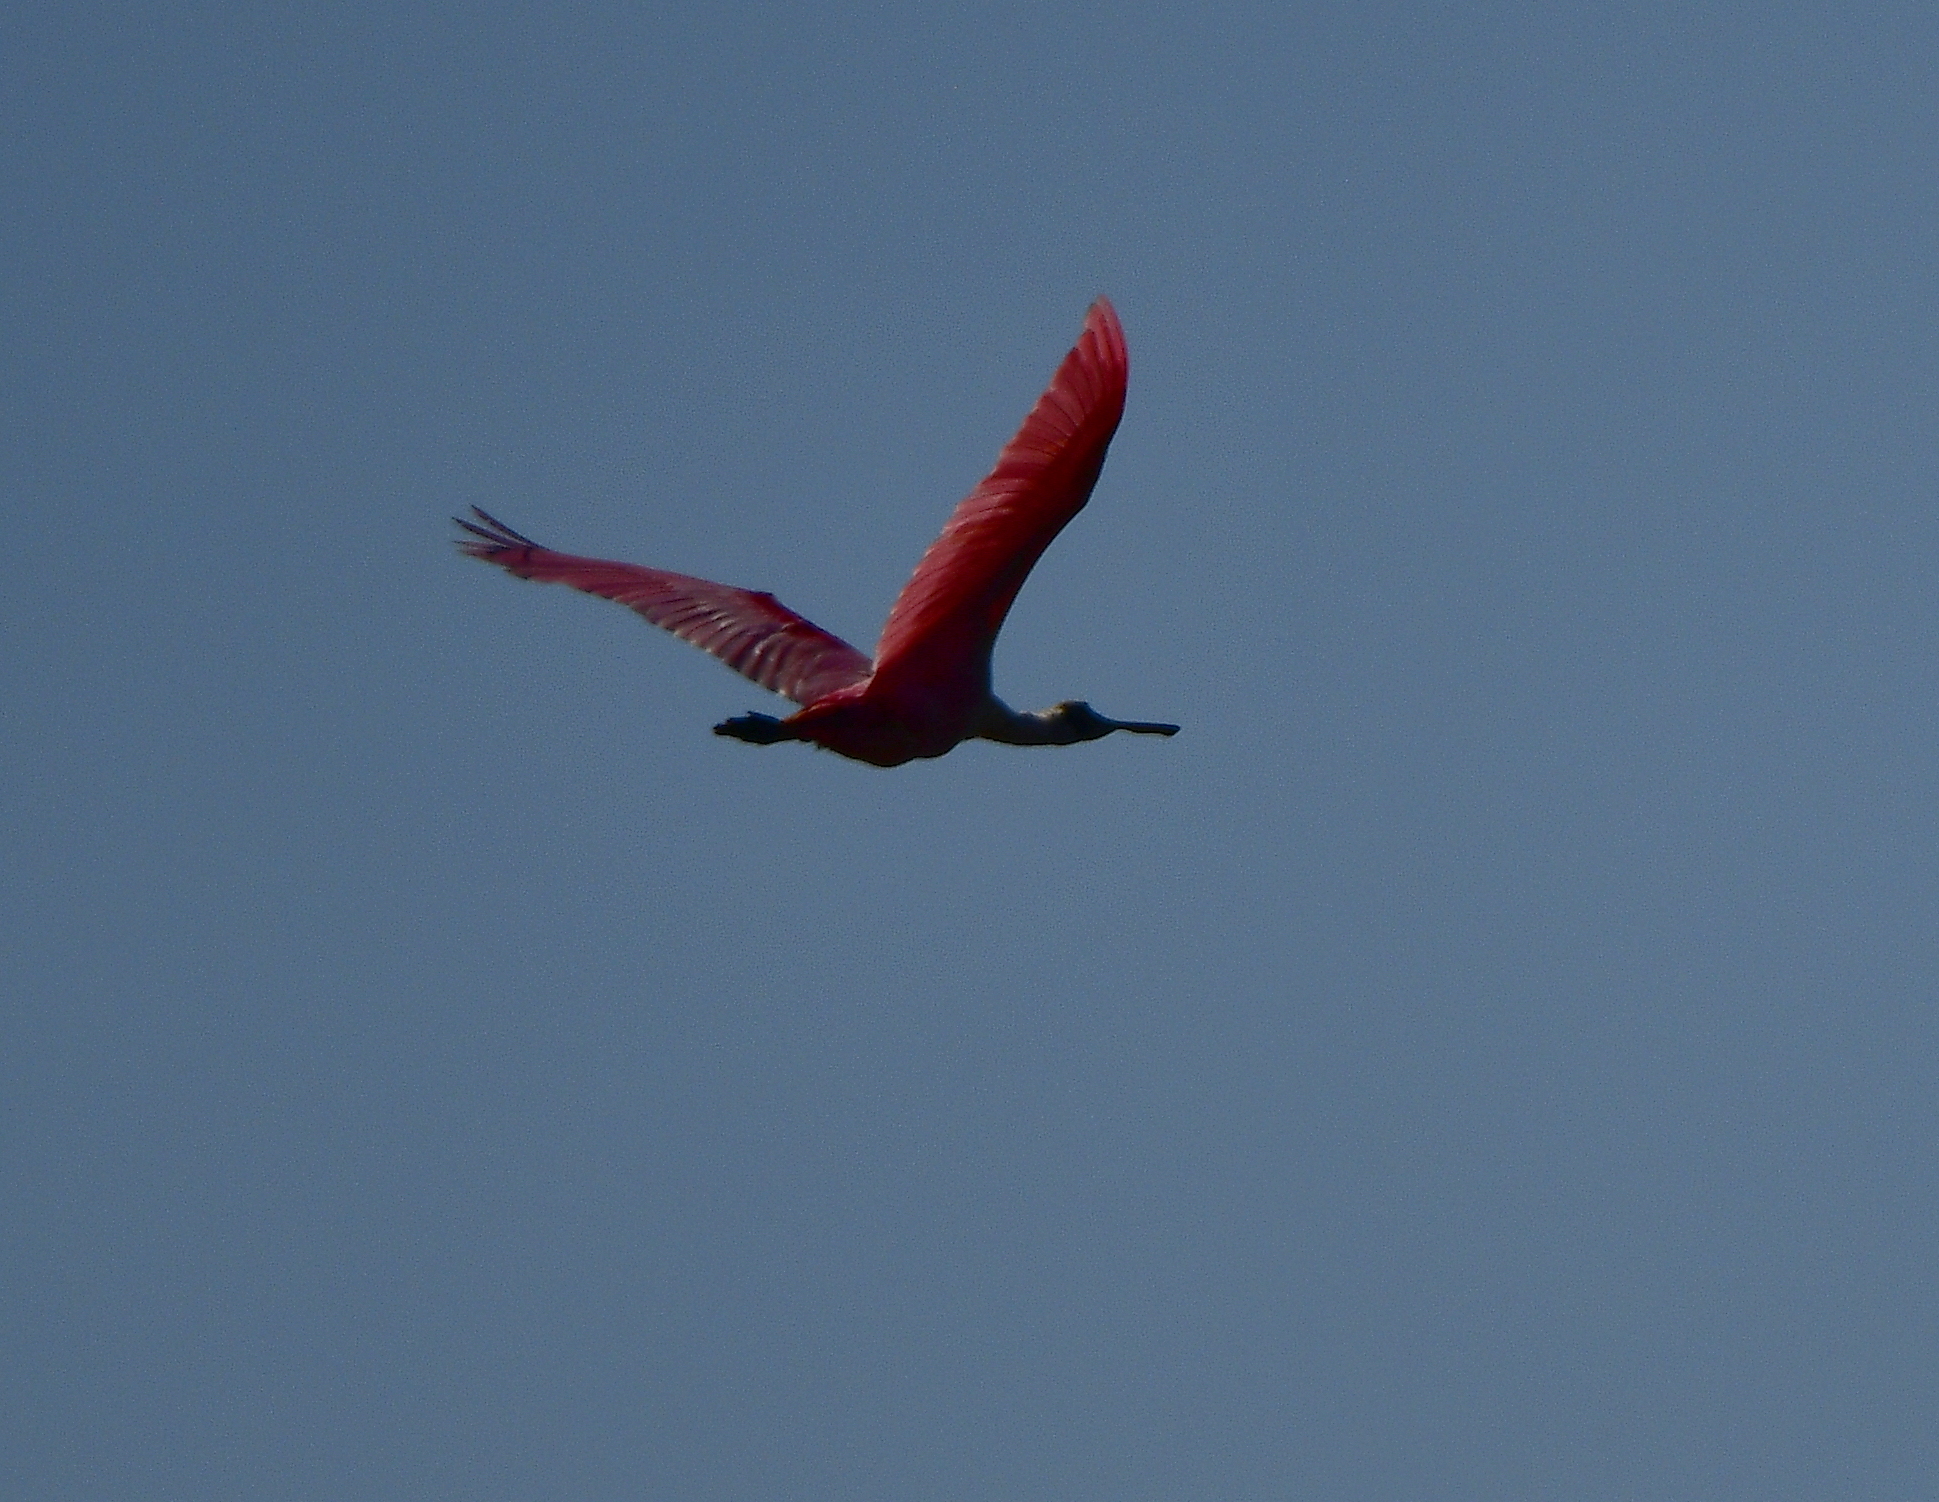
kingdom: Animalia
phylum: Chordata
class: Aves
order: Pelecaniformes
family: Threskiornithidae
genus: Platalea
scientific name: Platalea ajaja
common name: Roseate spoonbill
